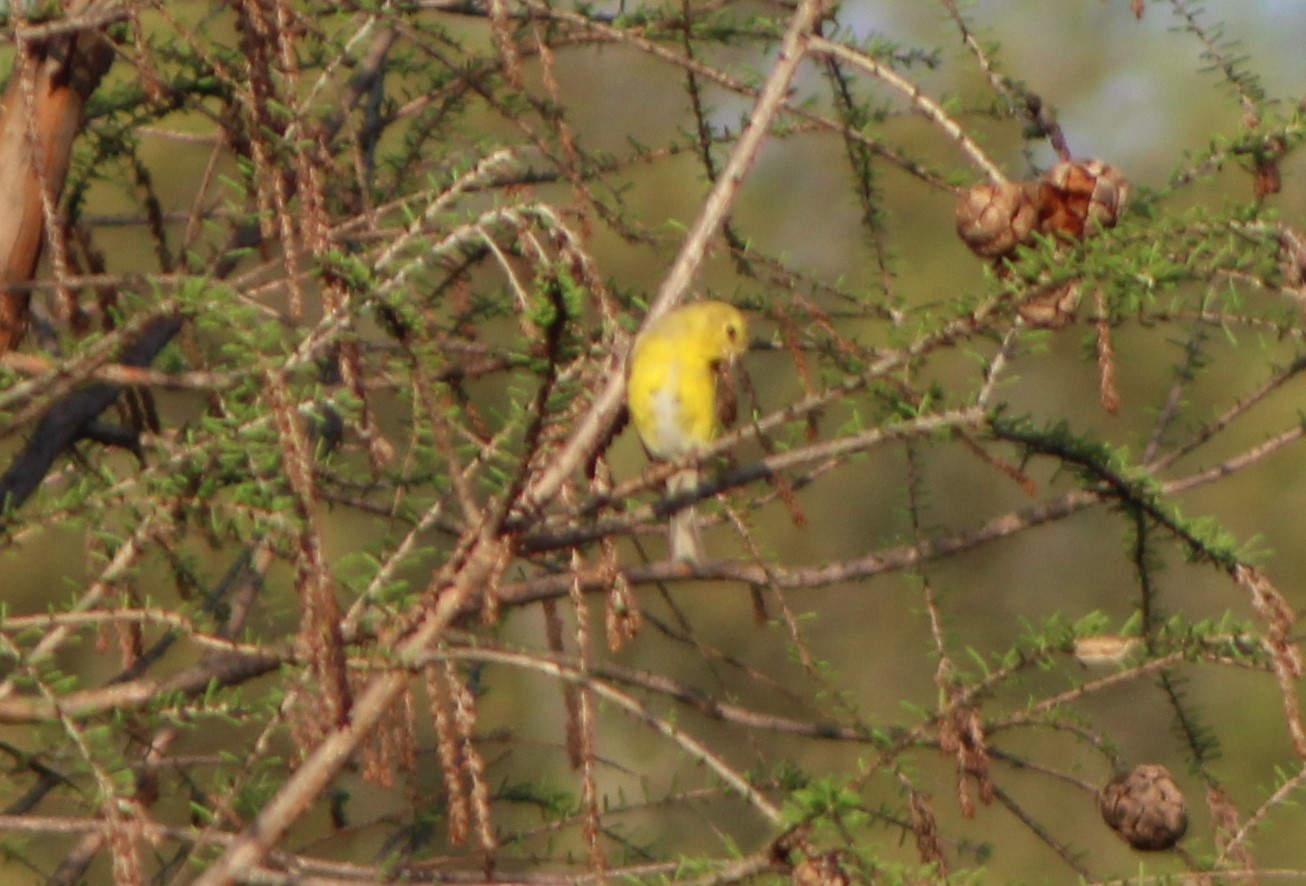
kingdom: Animalia
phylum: Chordata
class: Aves
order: Passeriformes
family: Fringillidae
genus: Spinus
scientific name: Spinus tristis
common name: American goldfinch
